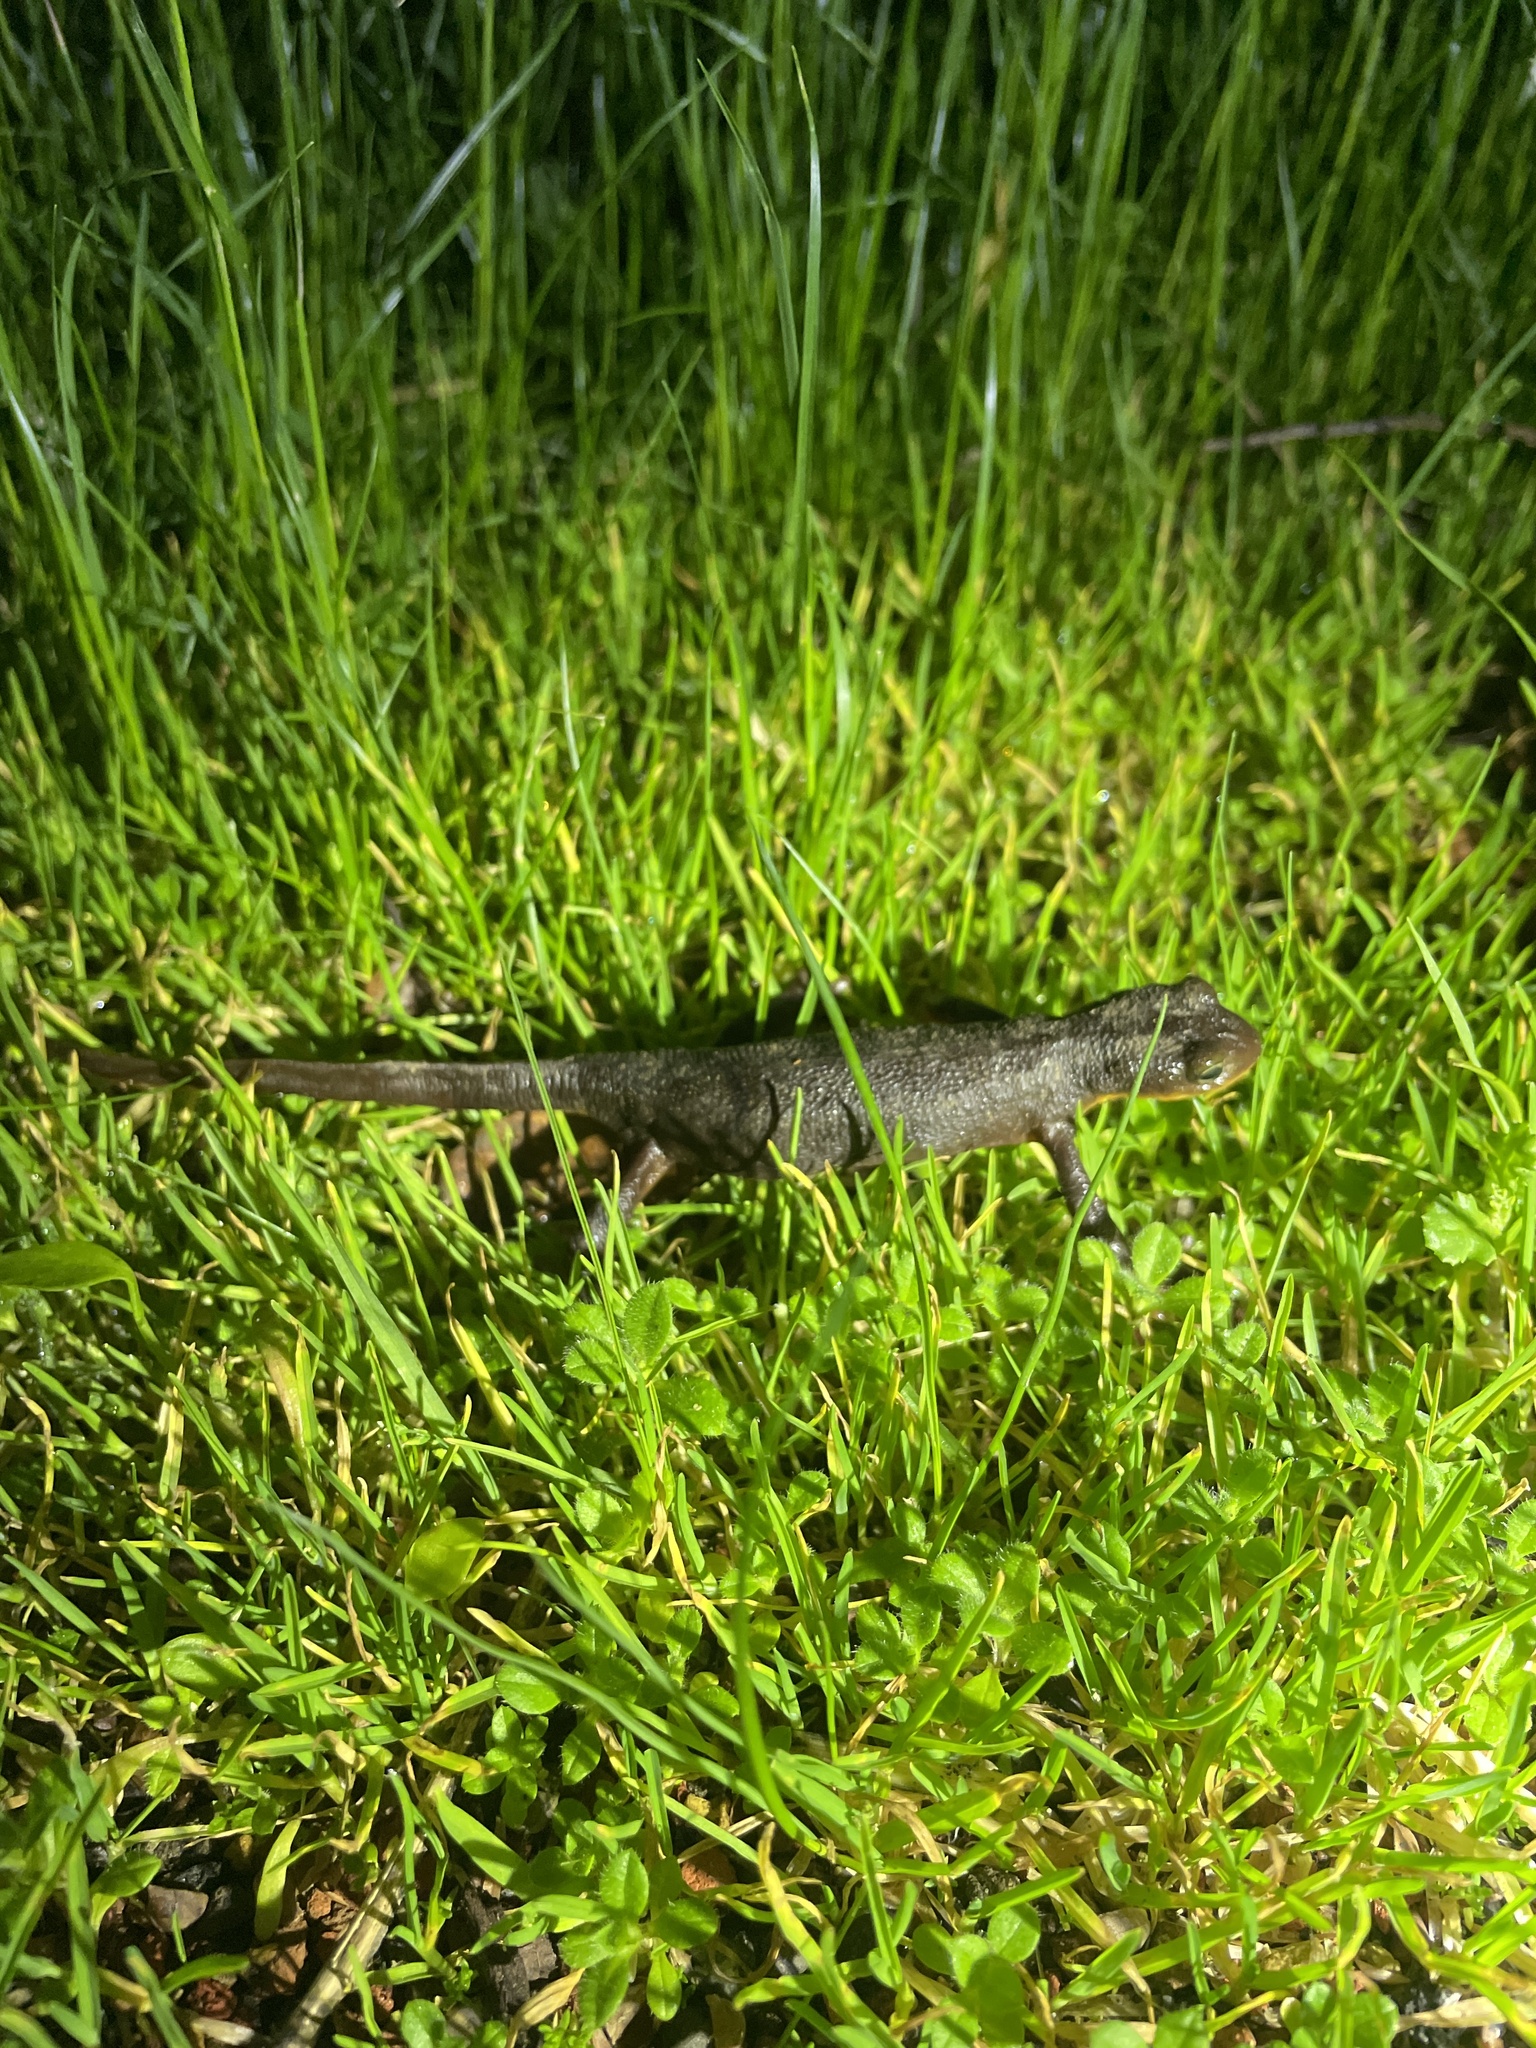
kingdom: Animalia
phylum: Chordata
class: Amphibia
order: Caudata
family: Salamandridae
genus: Taricha
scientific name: Taricha torosa
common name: California newt
